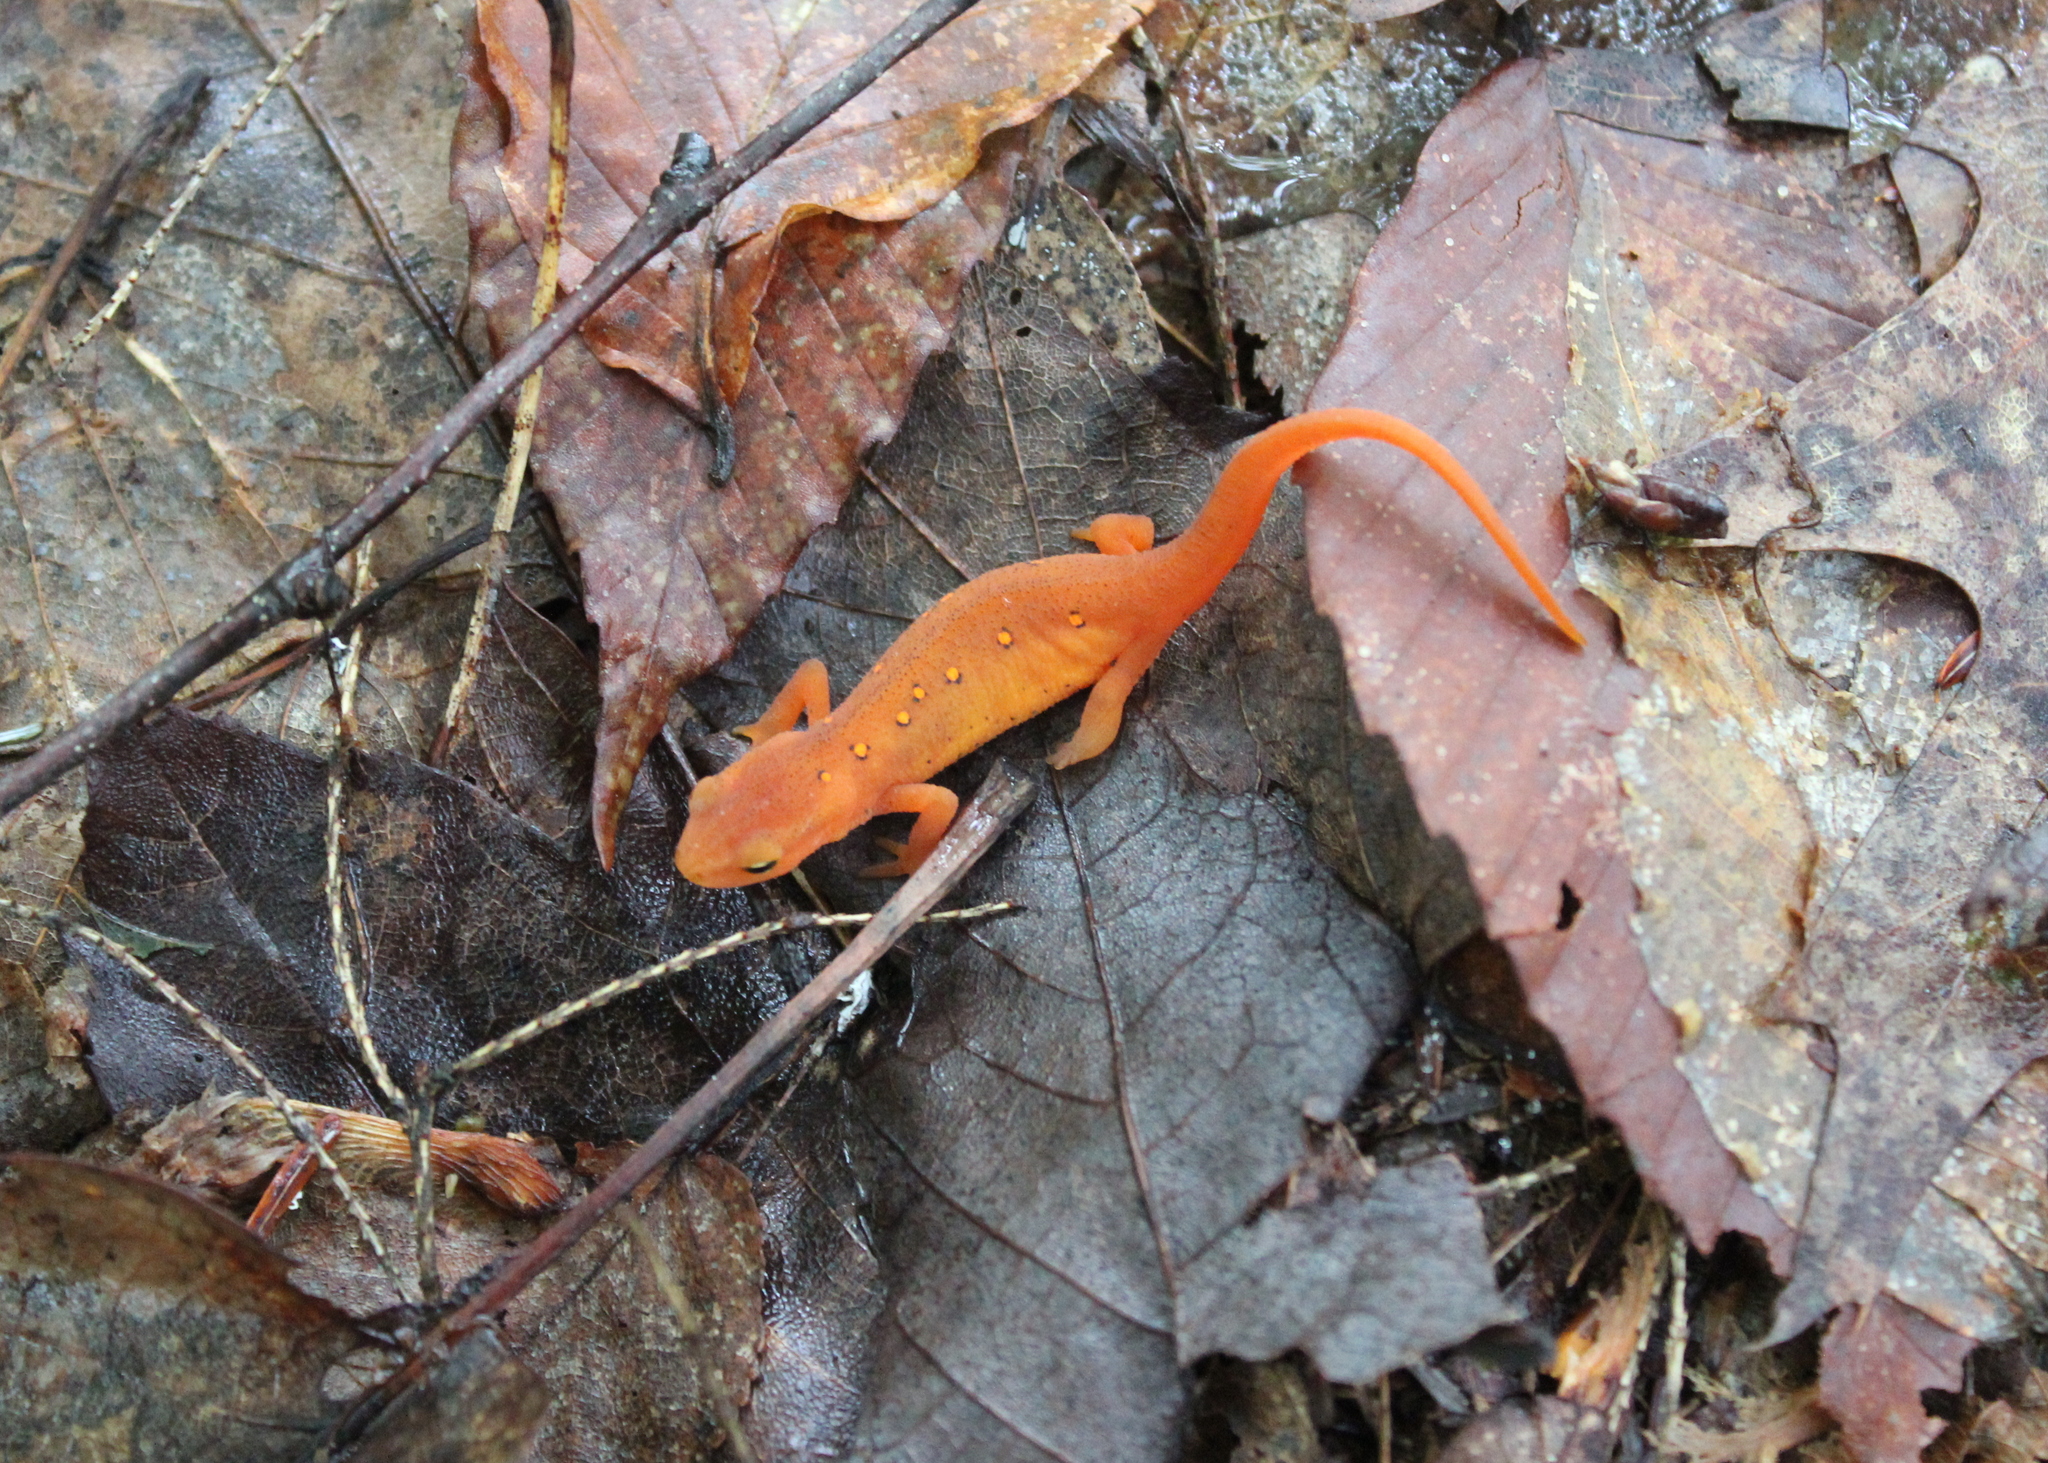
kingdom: Animalia
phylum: Chordata
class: Amphibia
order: Caudata
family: Salamandridae
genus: Notophthalmus
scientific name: Notophthalmus viridescens
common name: Eastern newt
